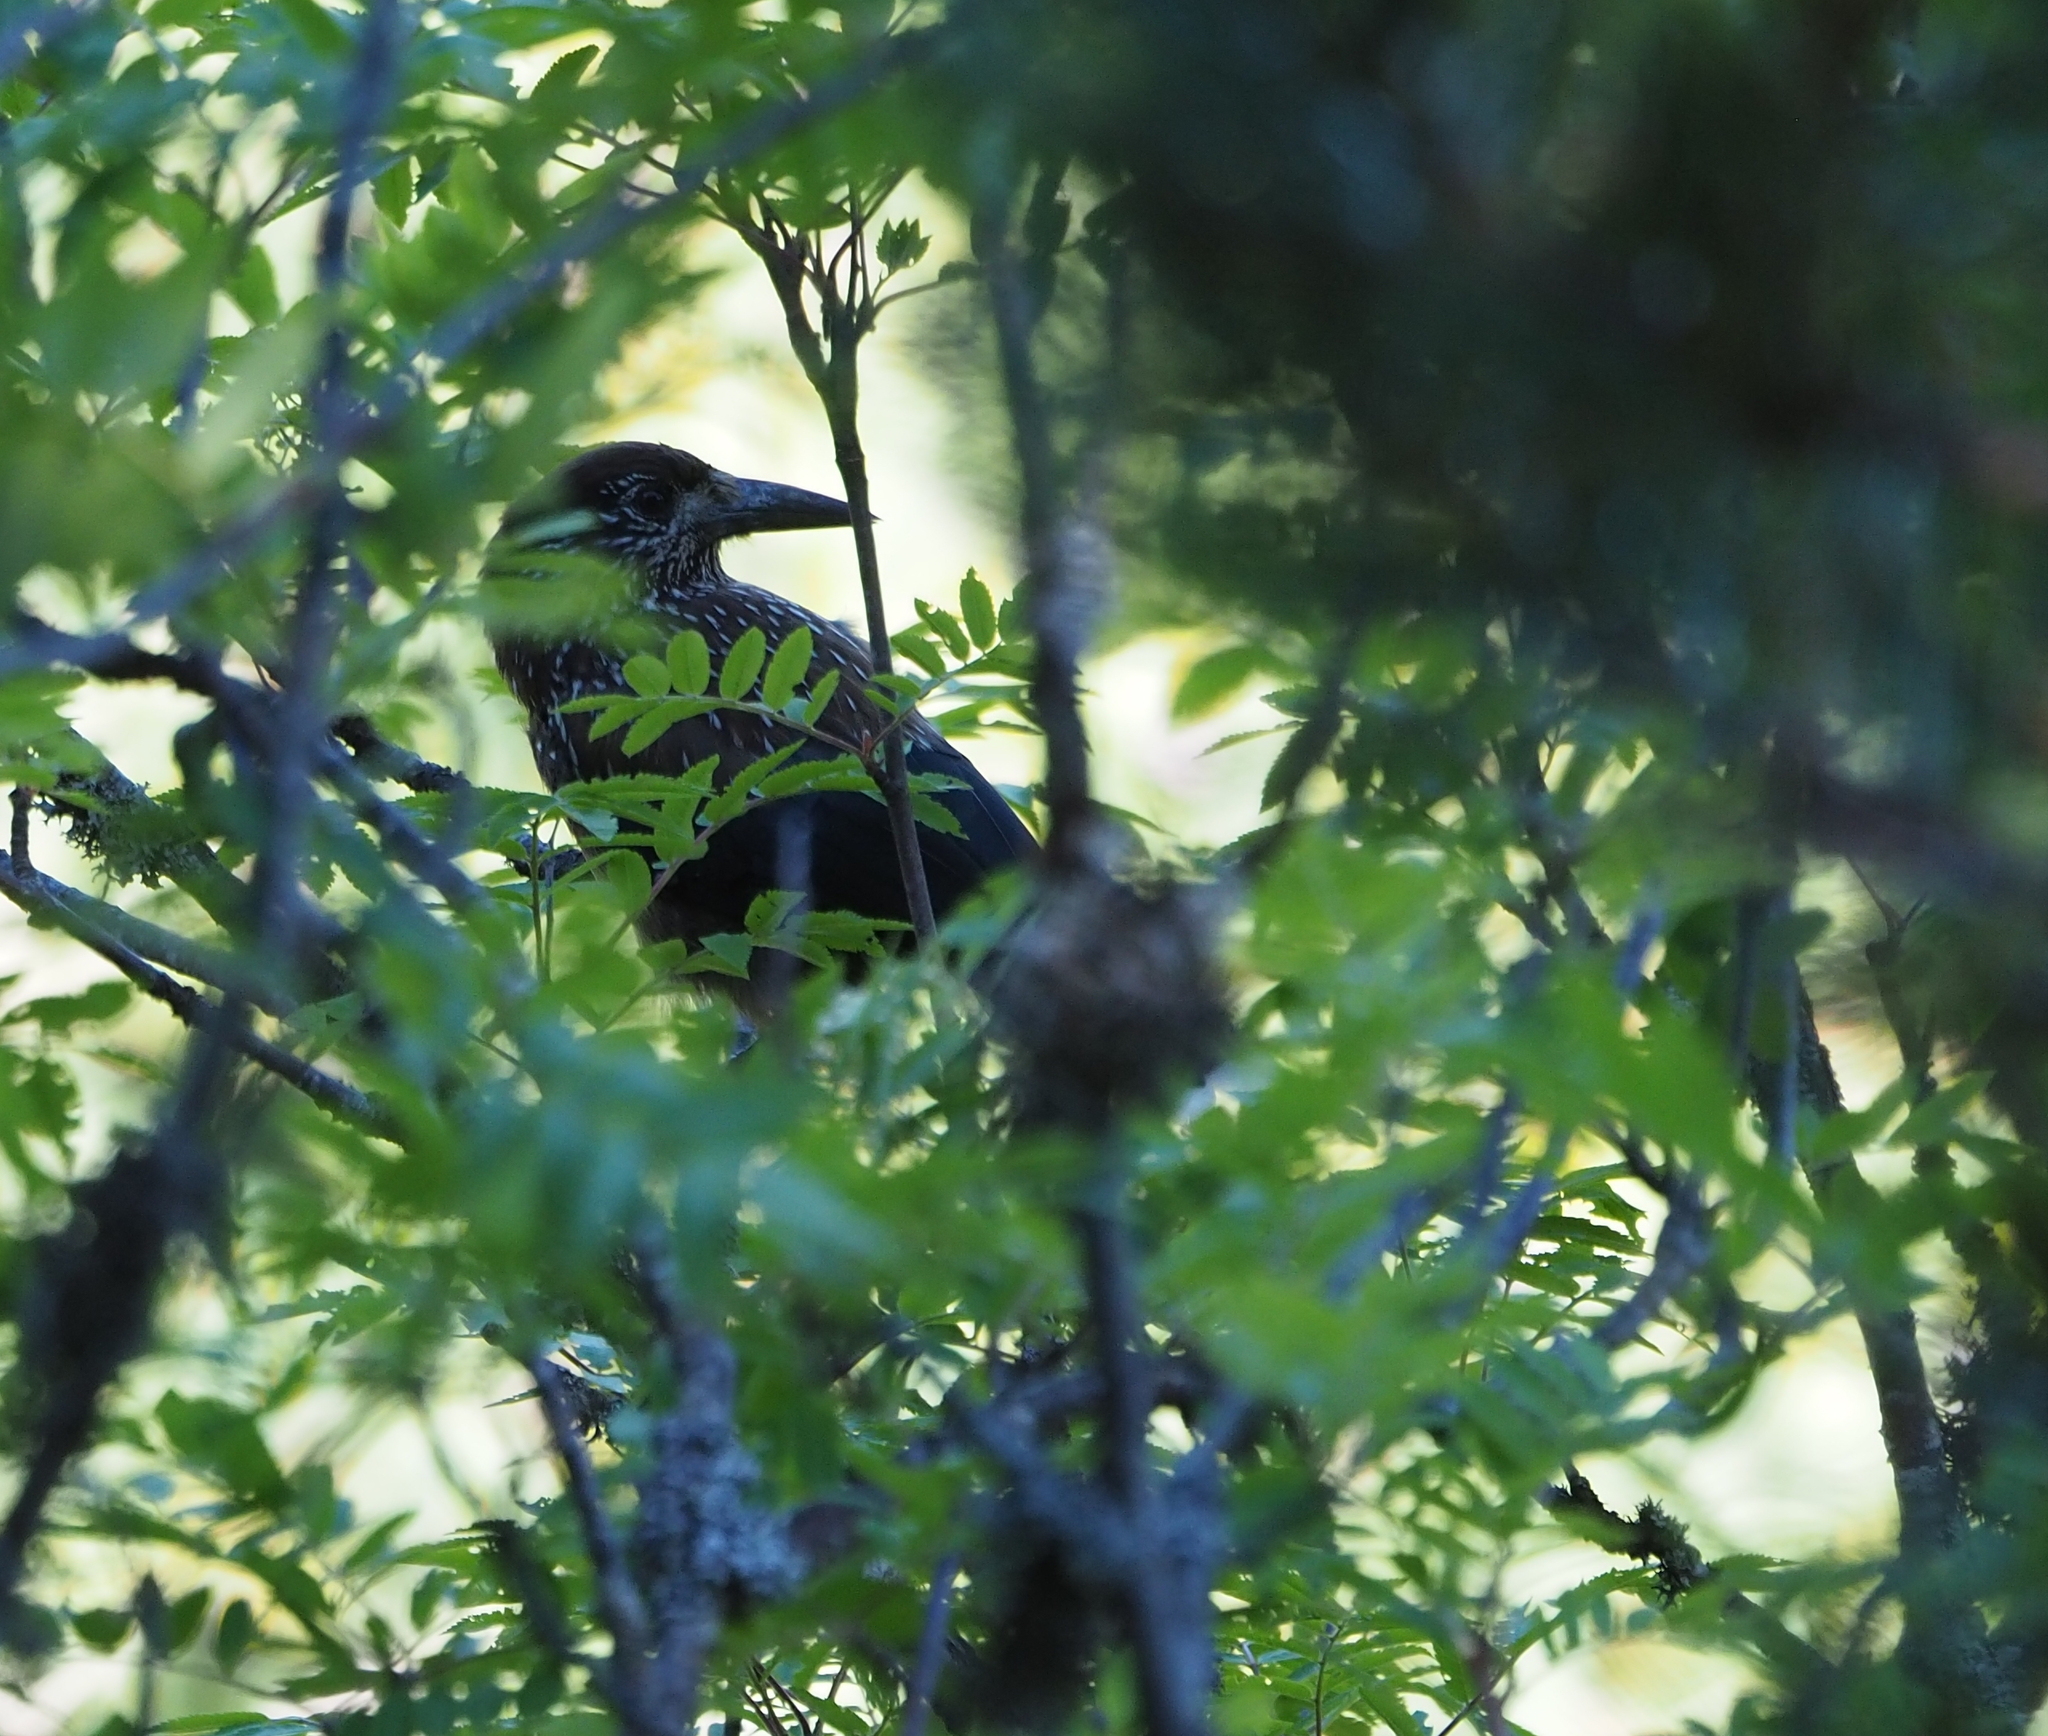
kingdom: Animalia
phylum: Chordata
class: Aves
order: Passeriformes
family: Corvidae
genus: Nucifraga
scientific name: Nucifraga caryocatactes
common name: Spotted nutcracker
